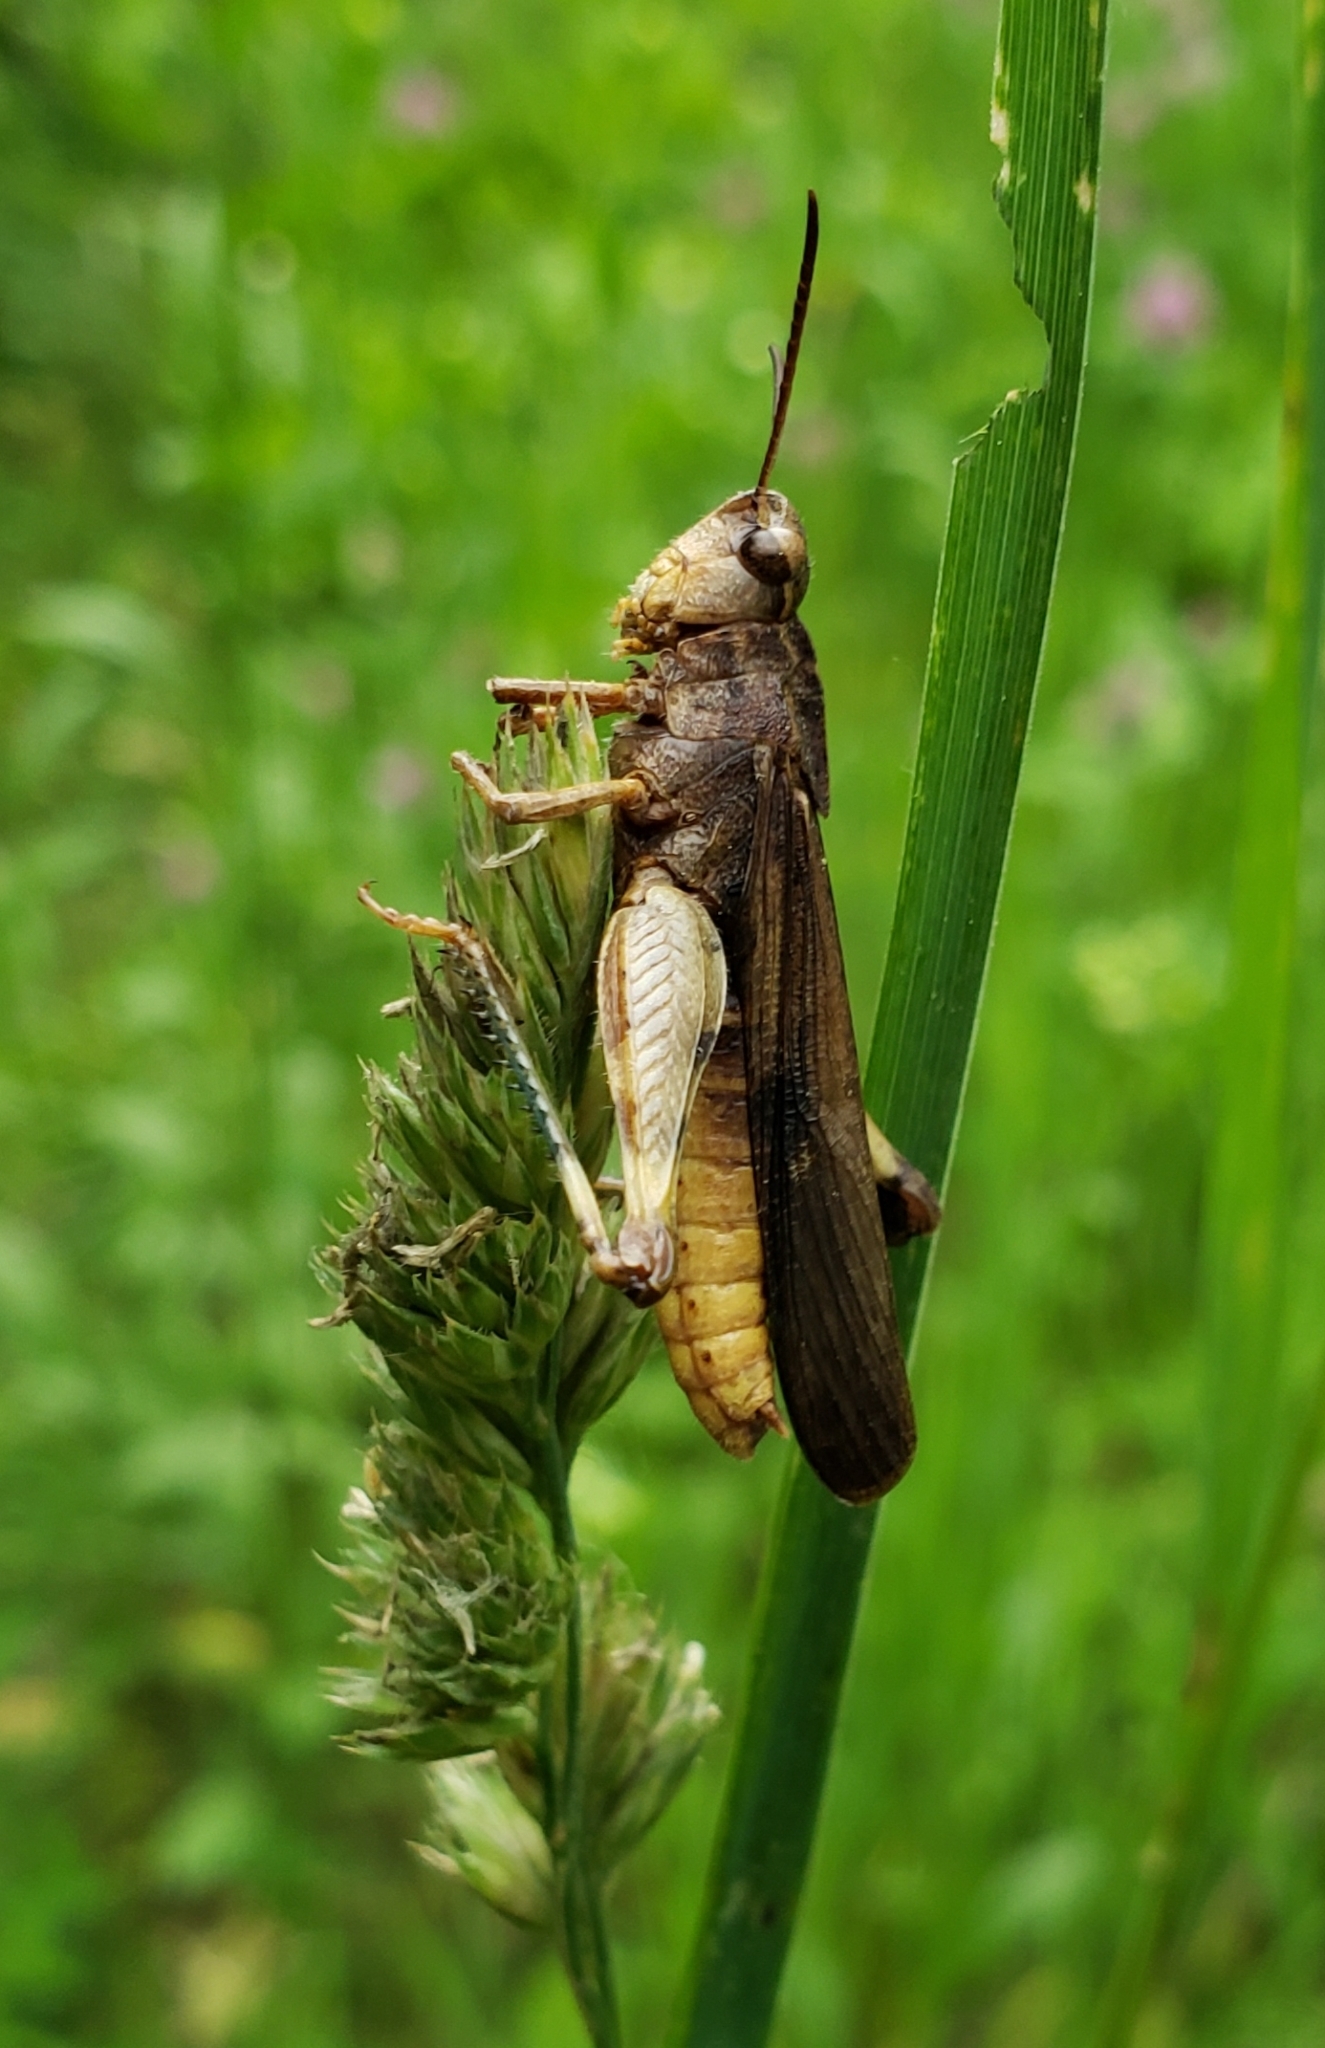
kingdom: Animalia
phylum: Arthropoda
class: Insecta
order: Orthoptera
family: Acrididae
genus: Chortophaga
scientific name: Chortophaga viridifasciata
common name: Green-striped grasshopper
